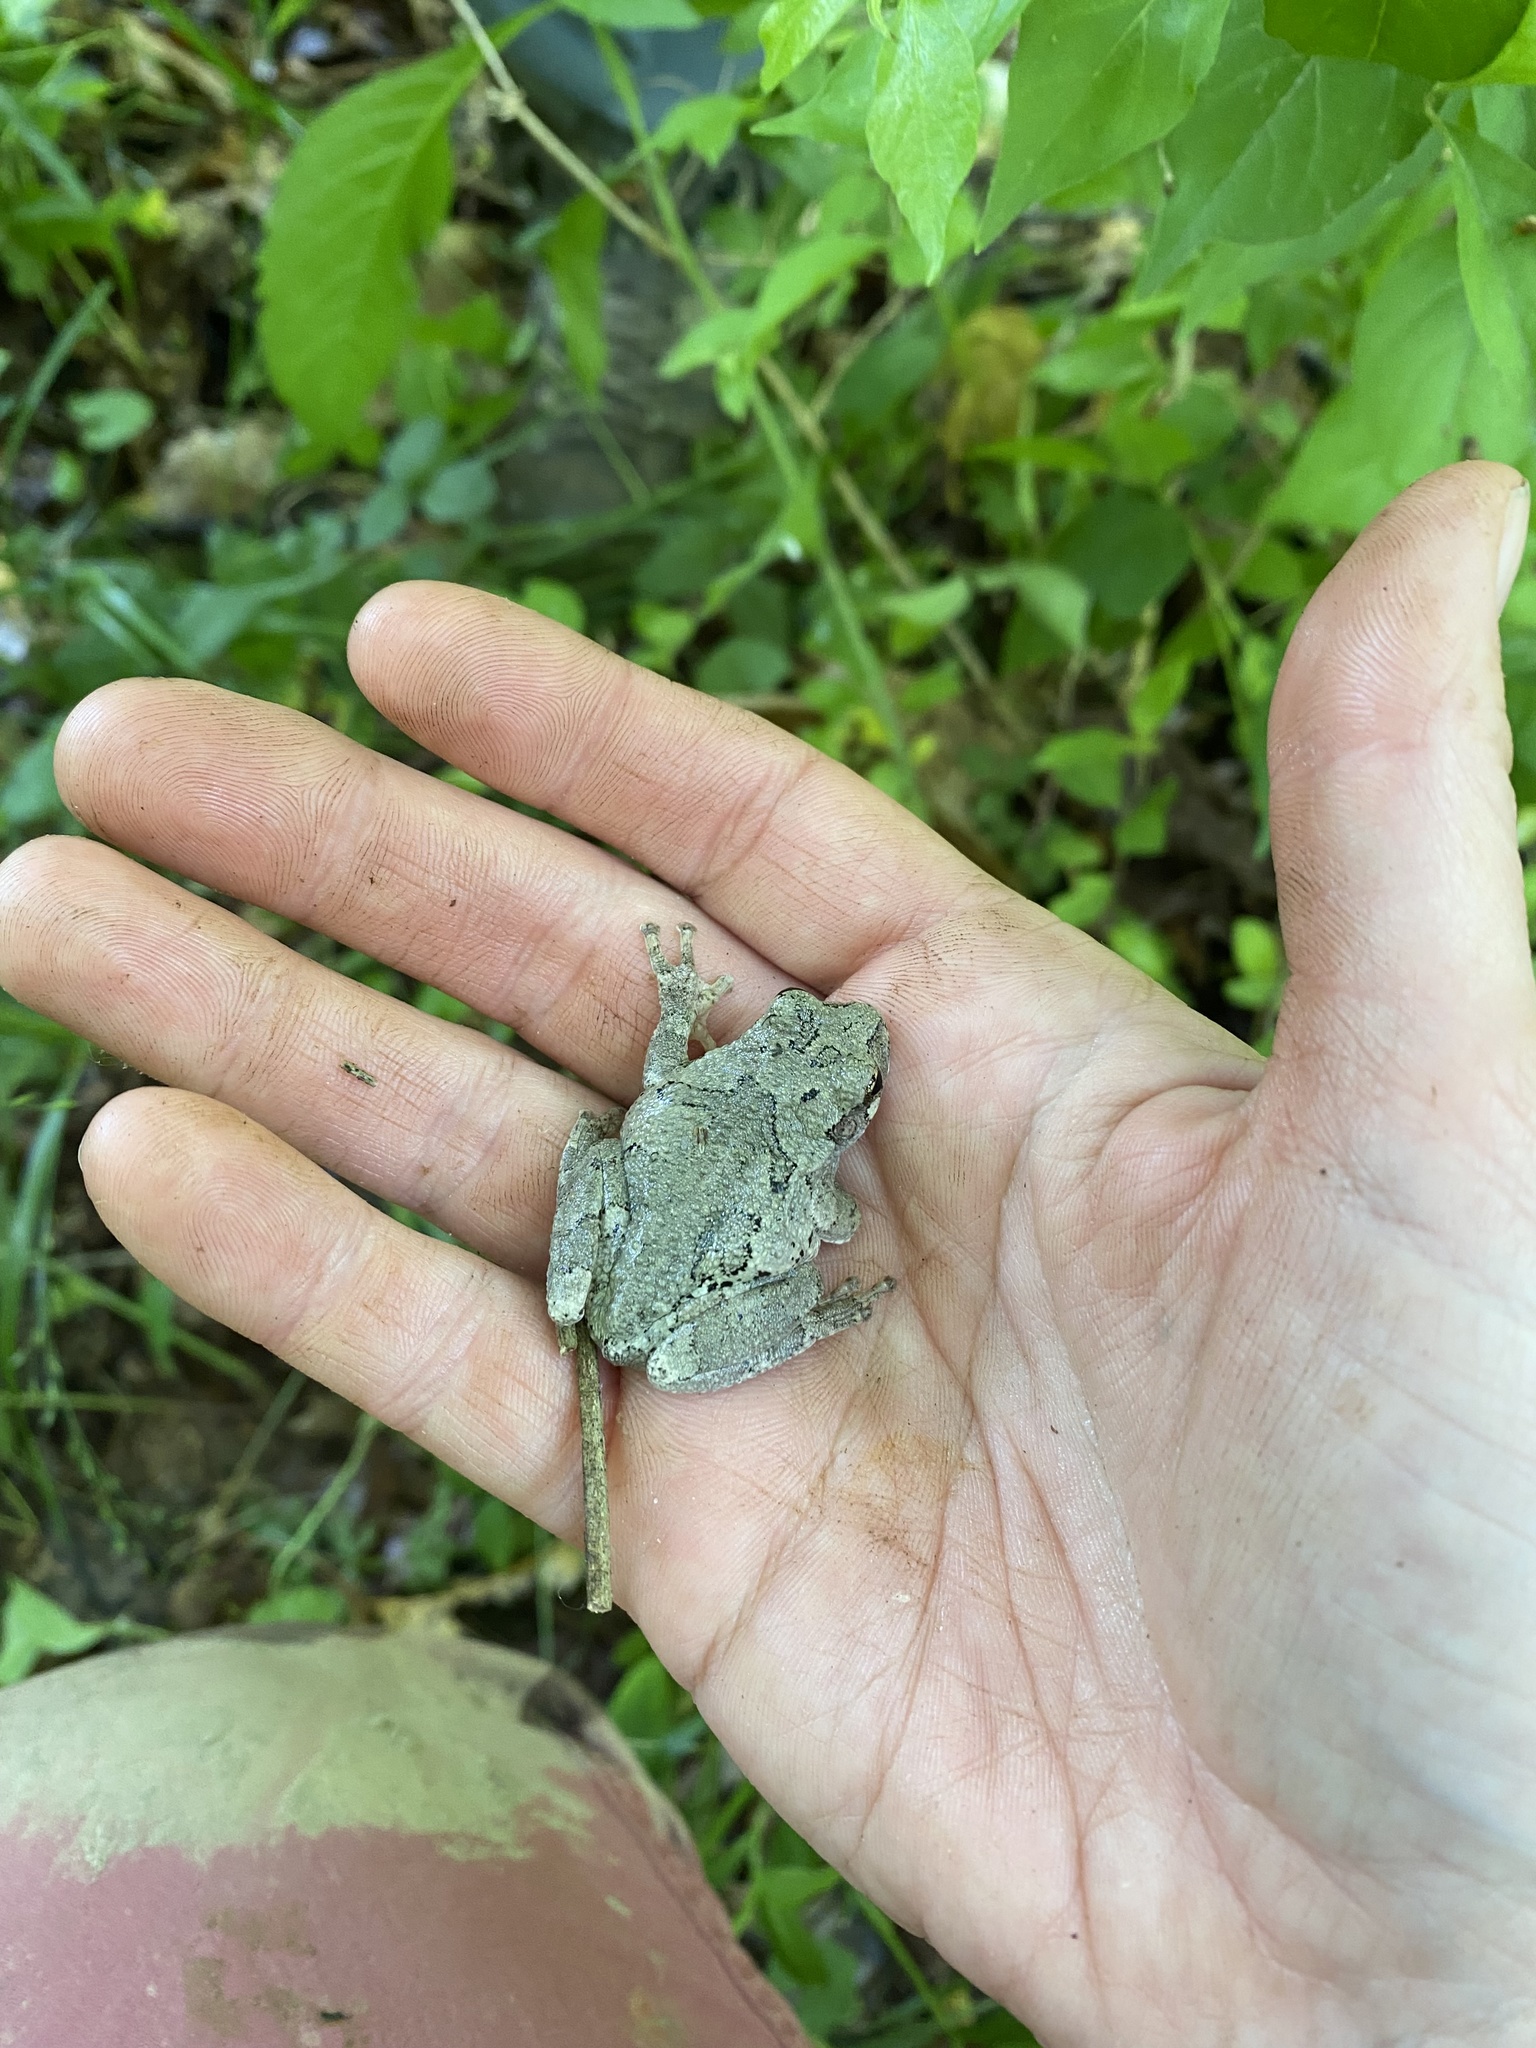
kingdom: Animalia
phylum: Chordata
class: Amphibia
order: Anura
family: Hylidae
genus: Dryophytes
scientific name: Dryophytes chrysoscelis
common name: Cope's gray treefrog
